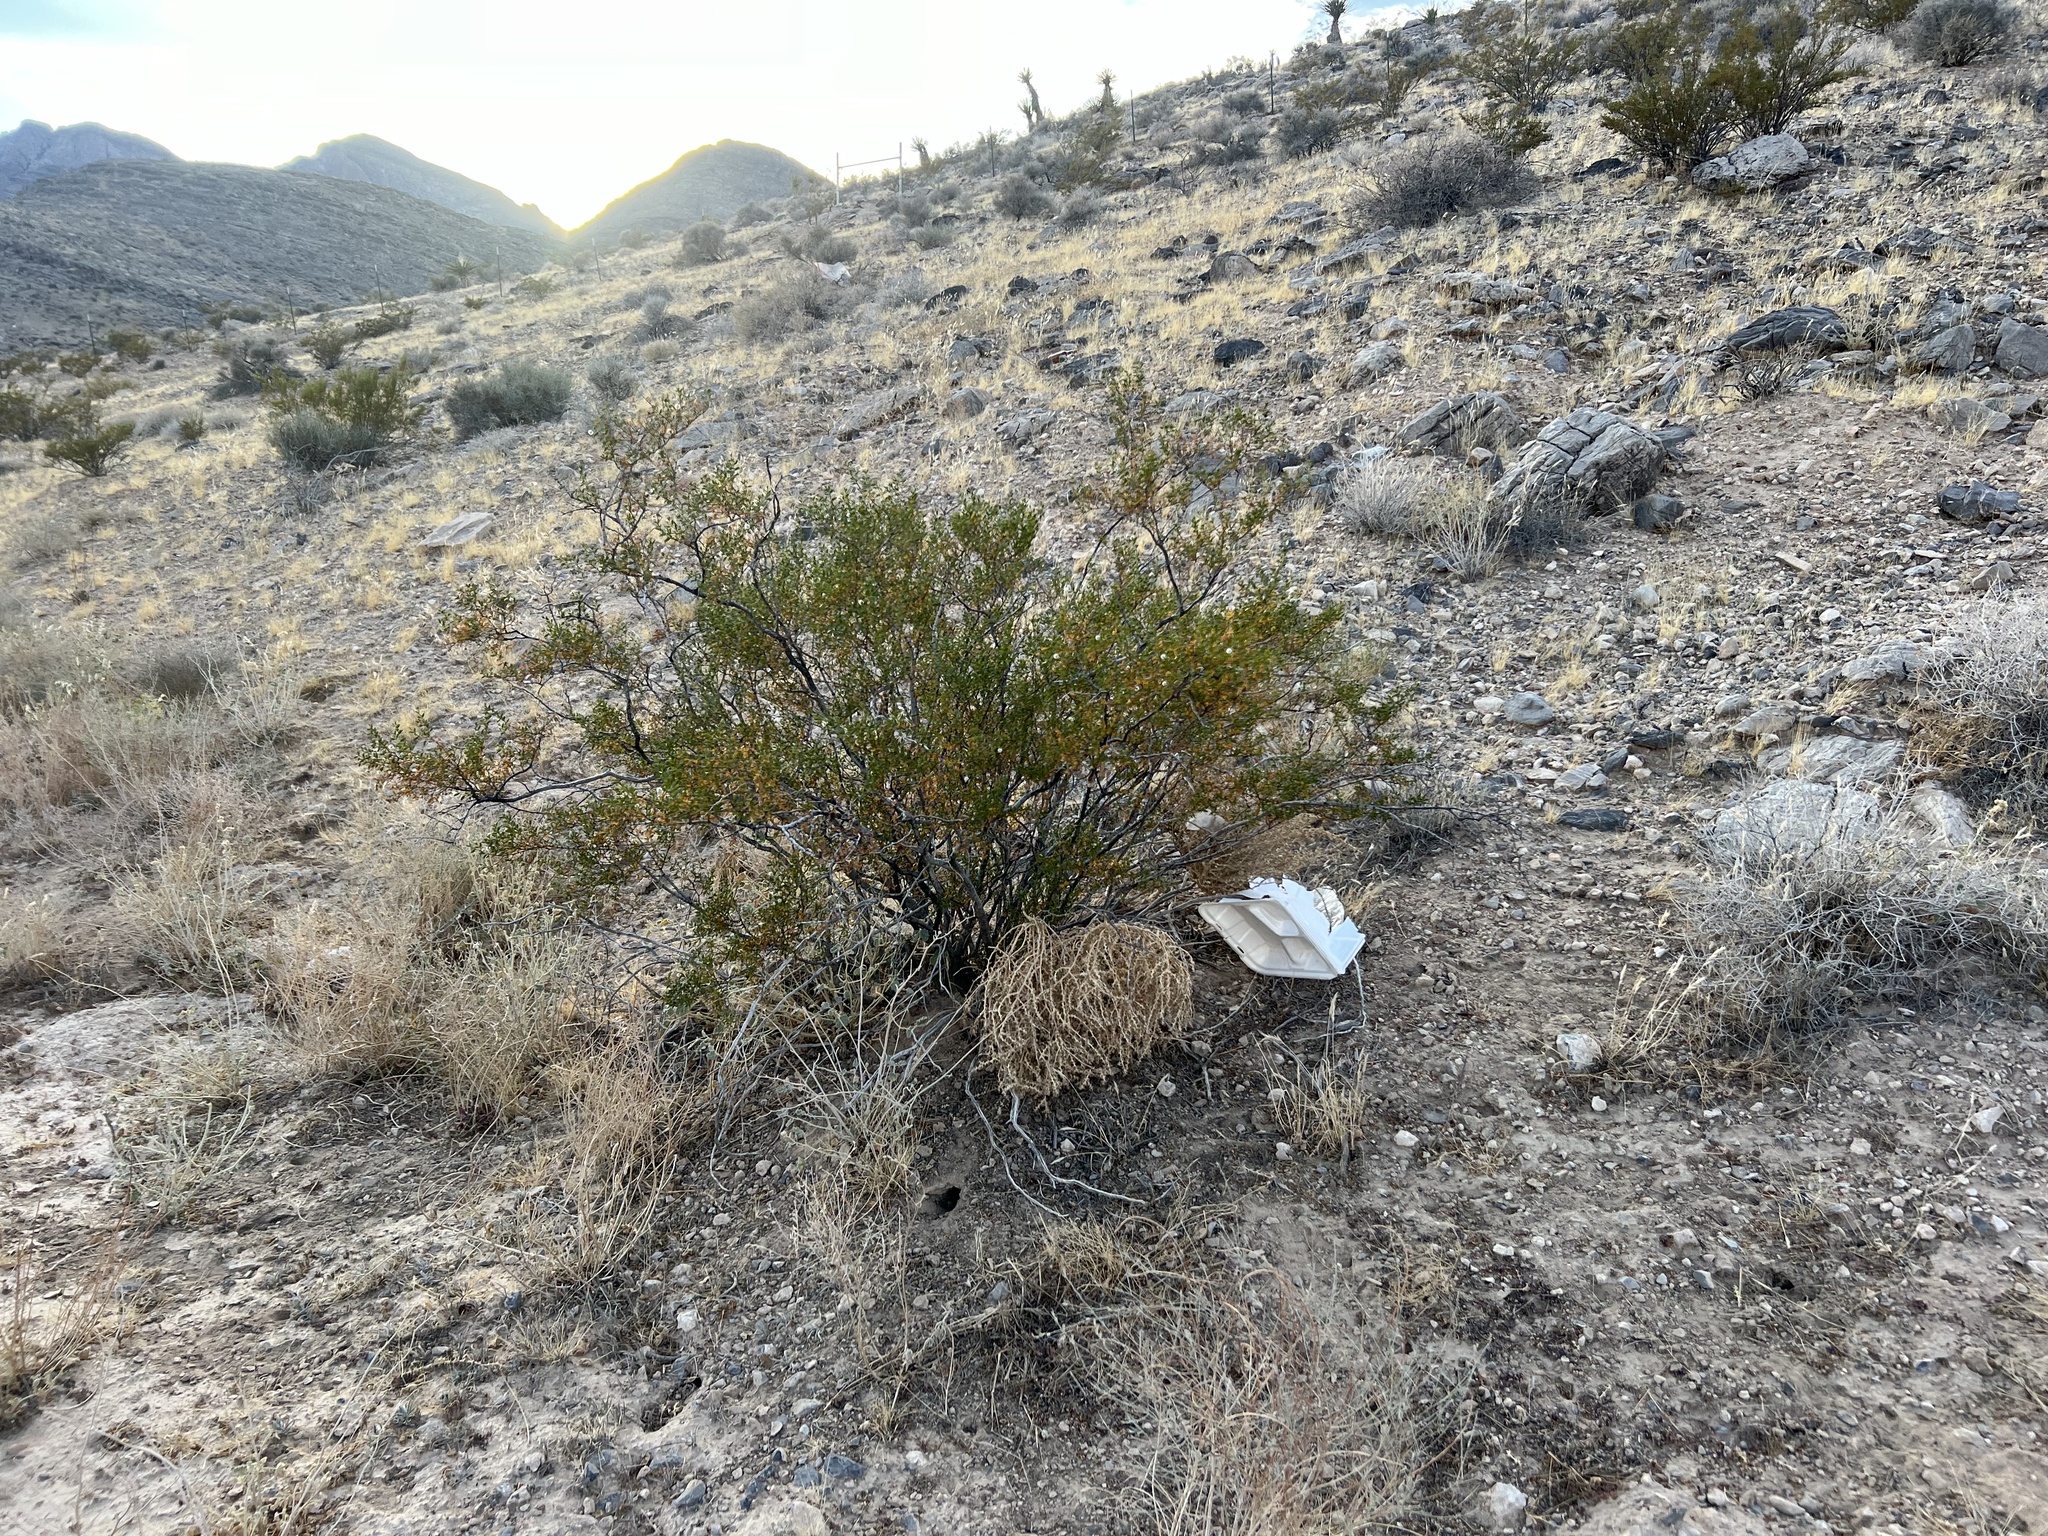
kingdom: Plantae
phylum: Tracheophyta
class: Magnoliopsida
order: Zygophyllales
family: Zygophyllaceae
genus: Larrea
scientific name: Larrea tridentata
